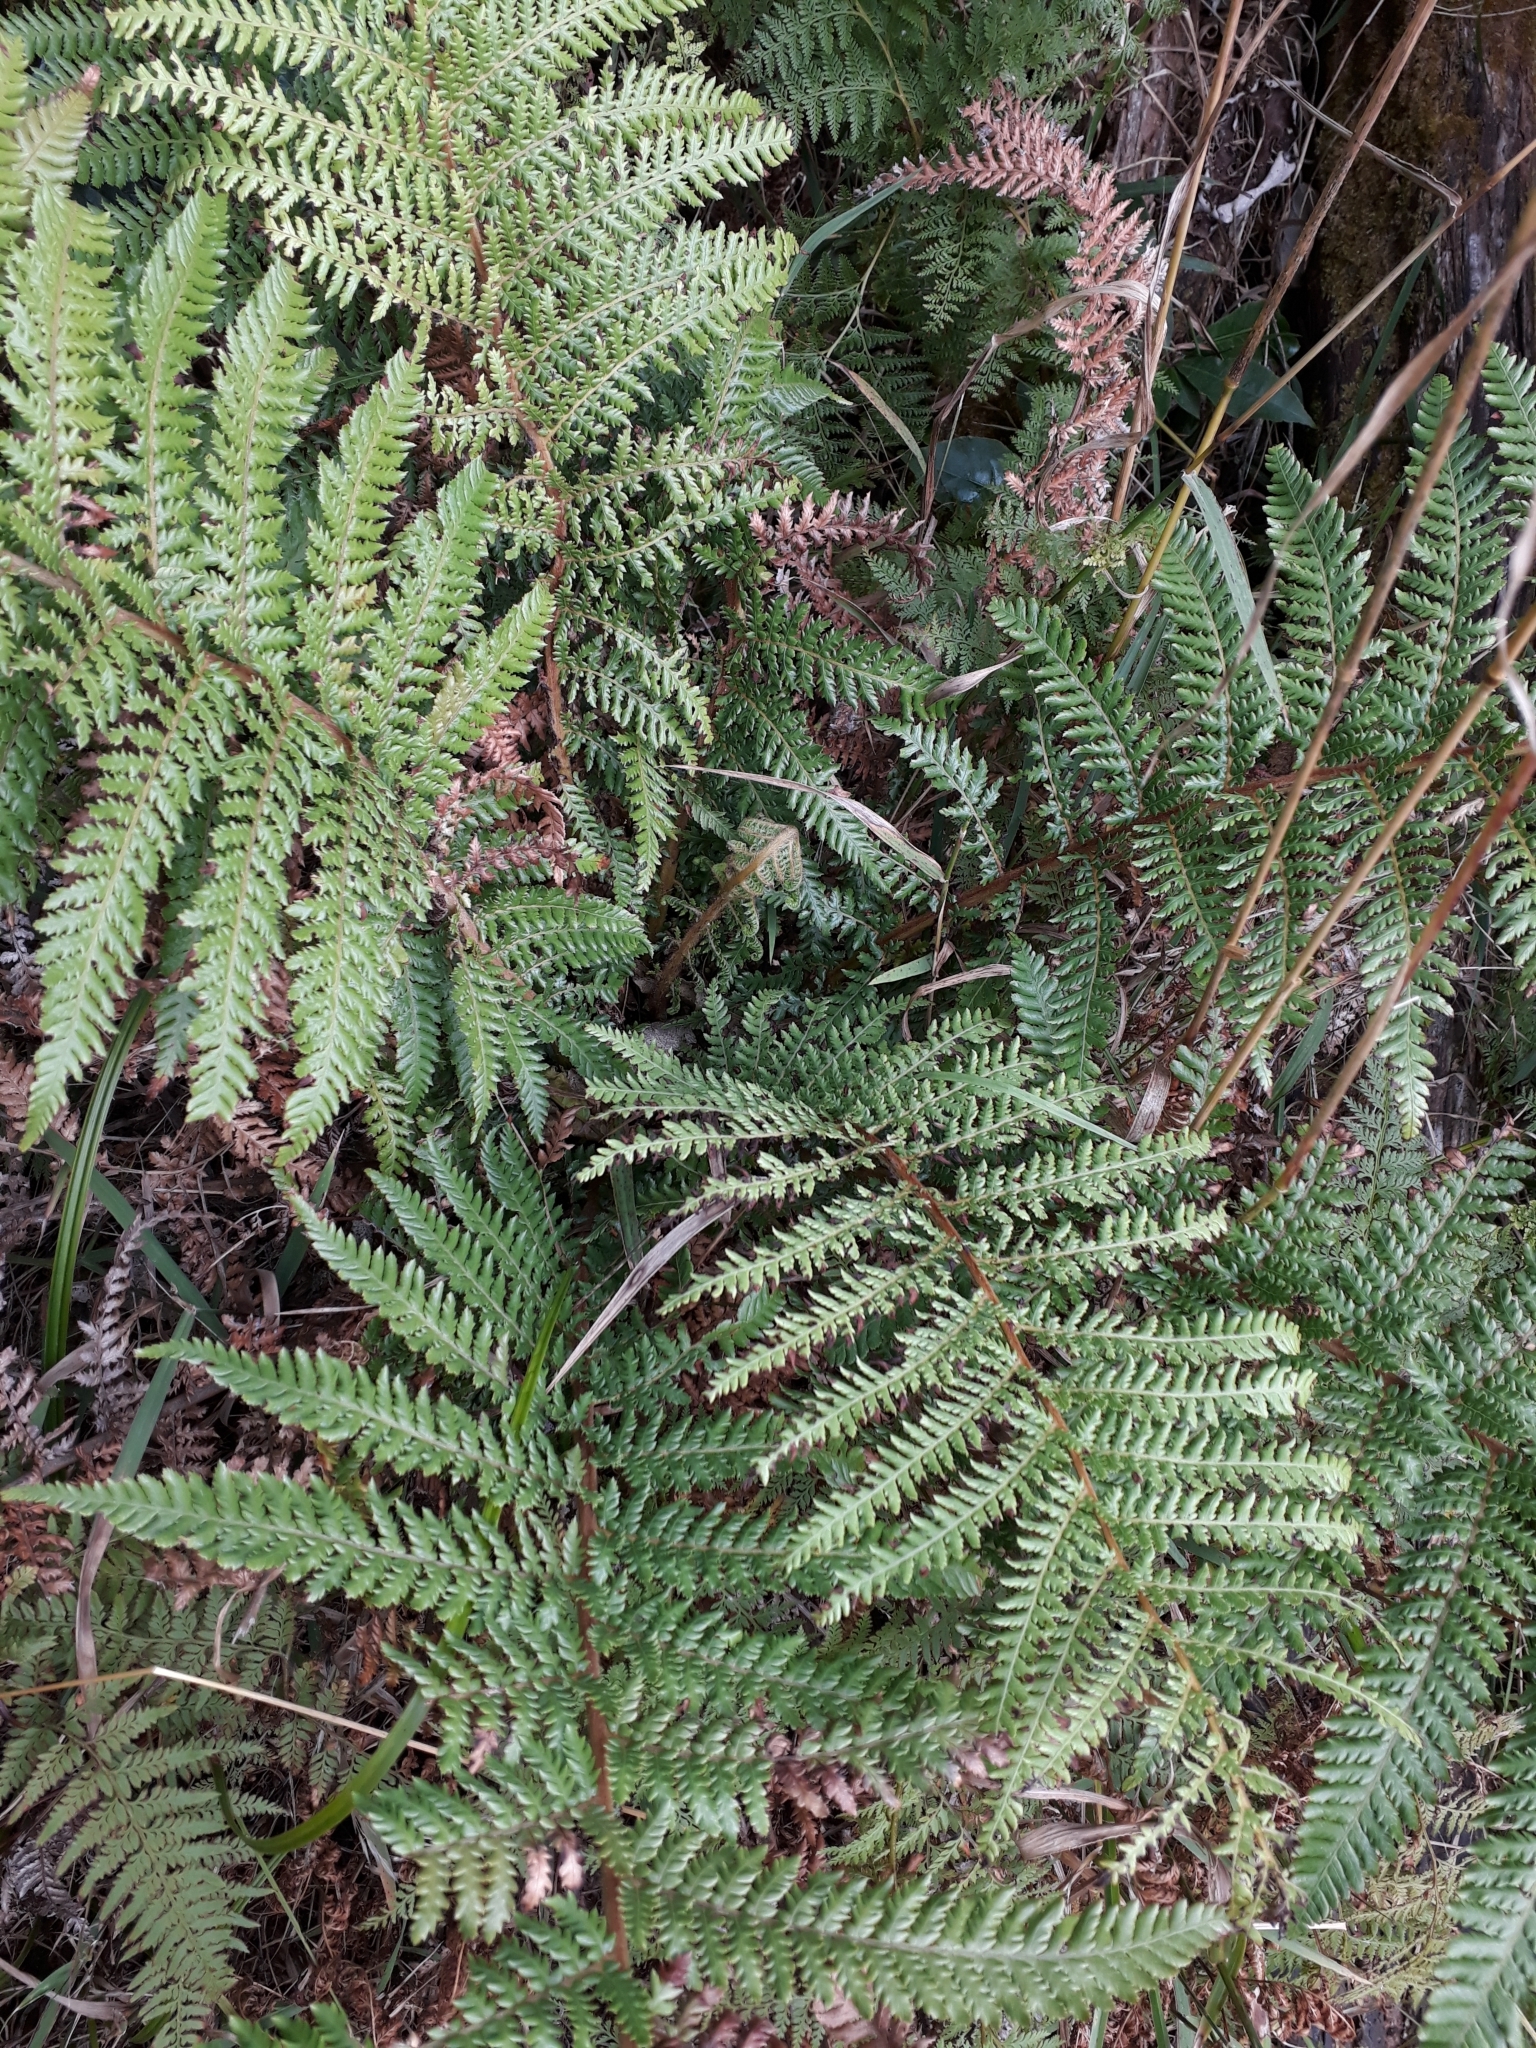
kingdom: Plantae
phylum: Tracheophyta
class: Polypodiopsida
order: Cyatheales
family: Dicksoniaceae
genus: Dicksonia
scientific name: Dicksonia fibrosa
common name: Golden tree fern
